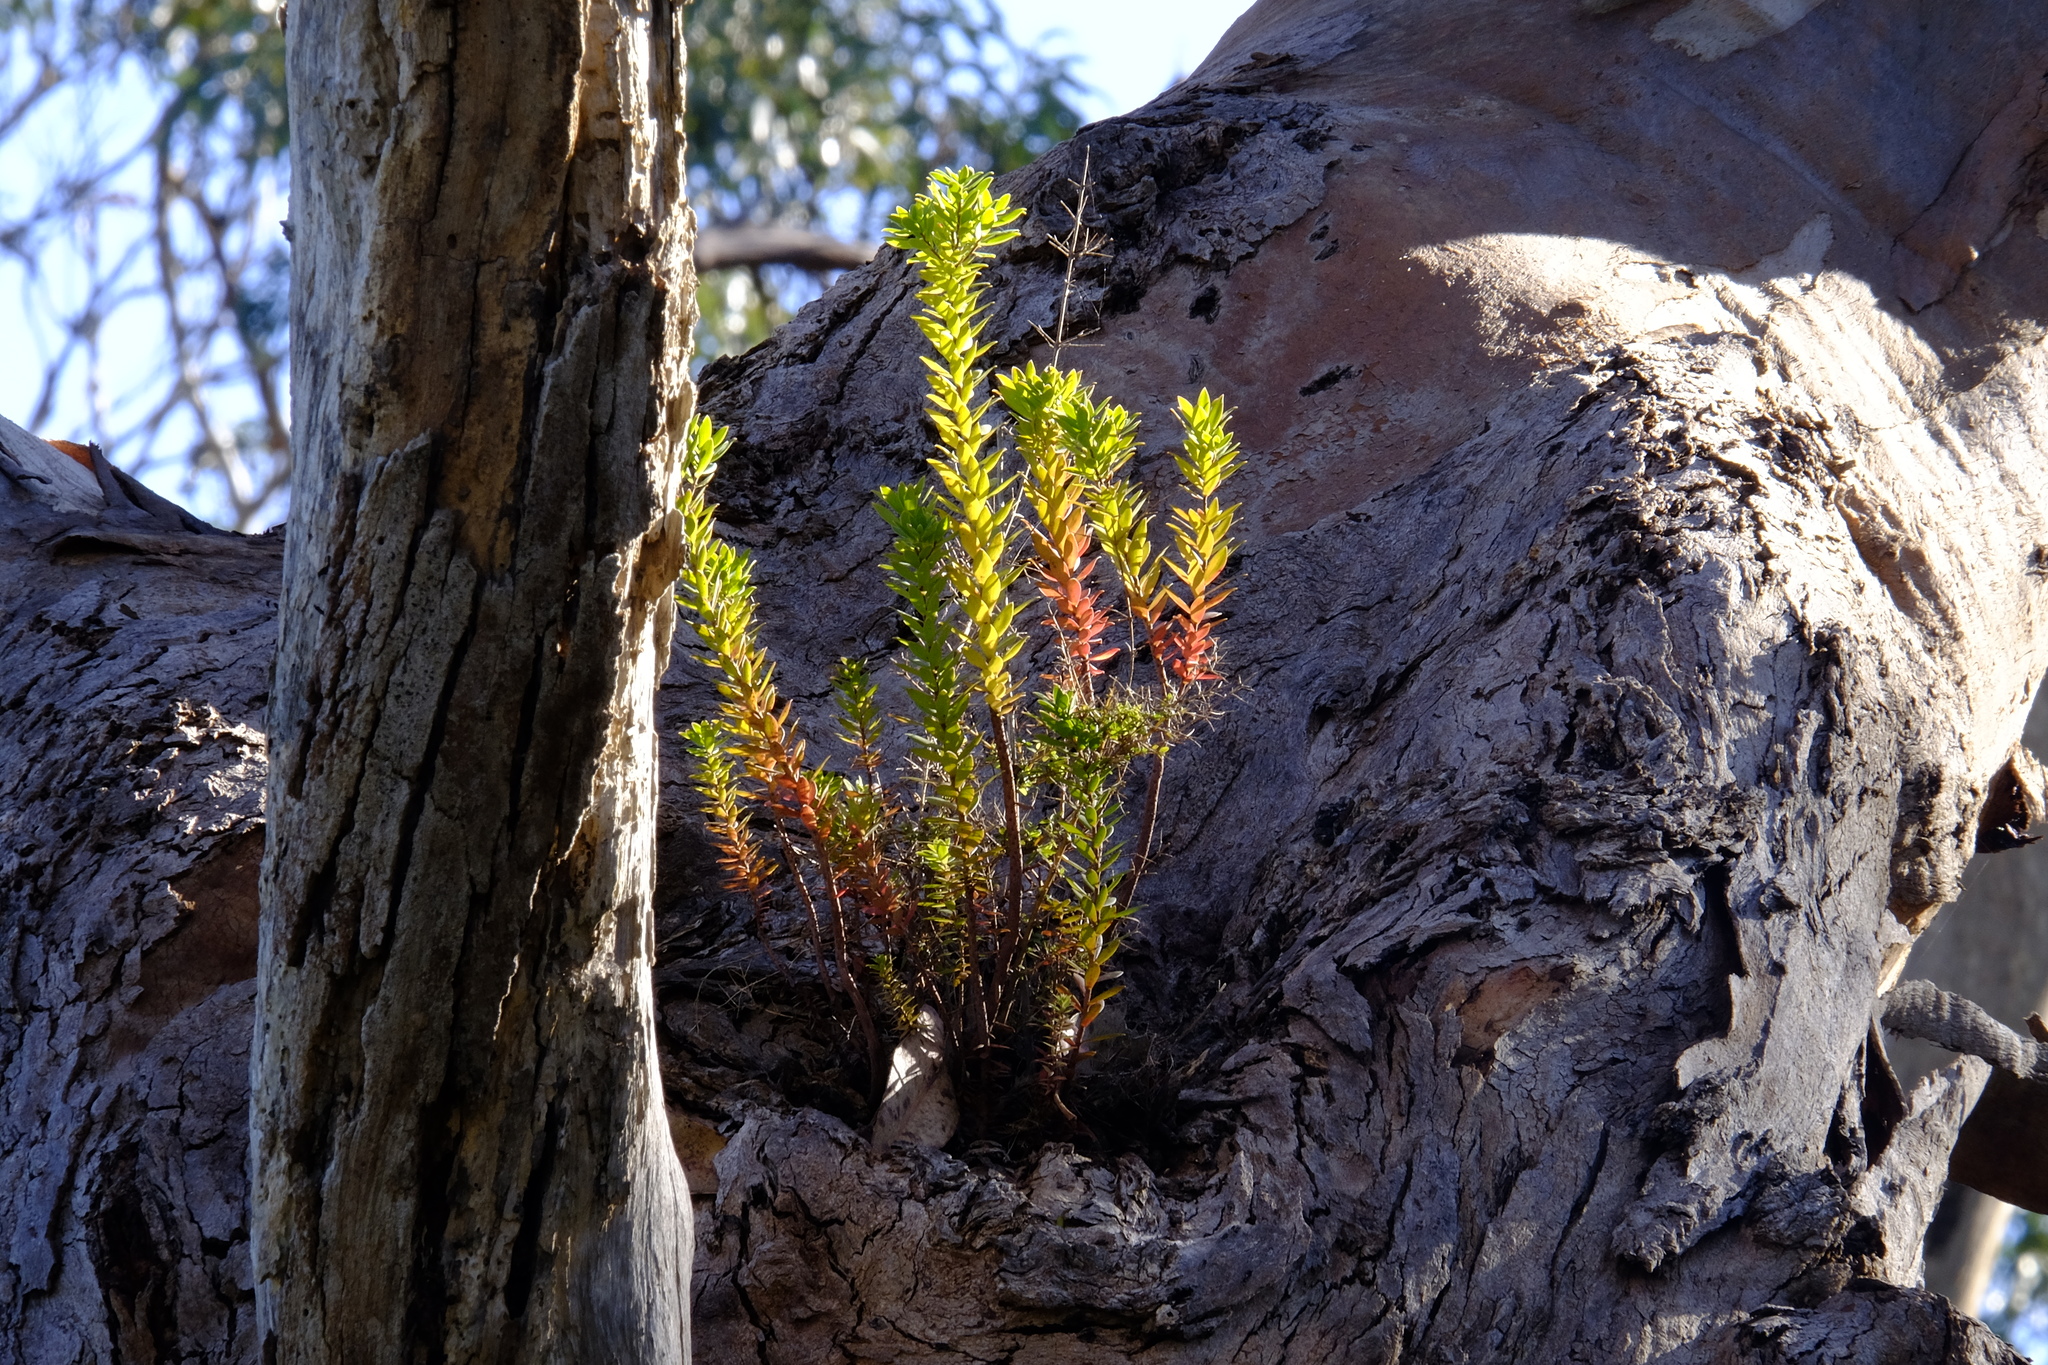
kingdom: Plantae
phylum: Tracheophyta
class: Magnoliopsida
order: Ericales
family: Ericaceae
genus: Leptecophylla
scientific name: Leptecophylla parvifolia
